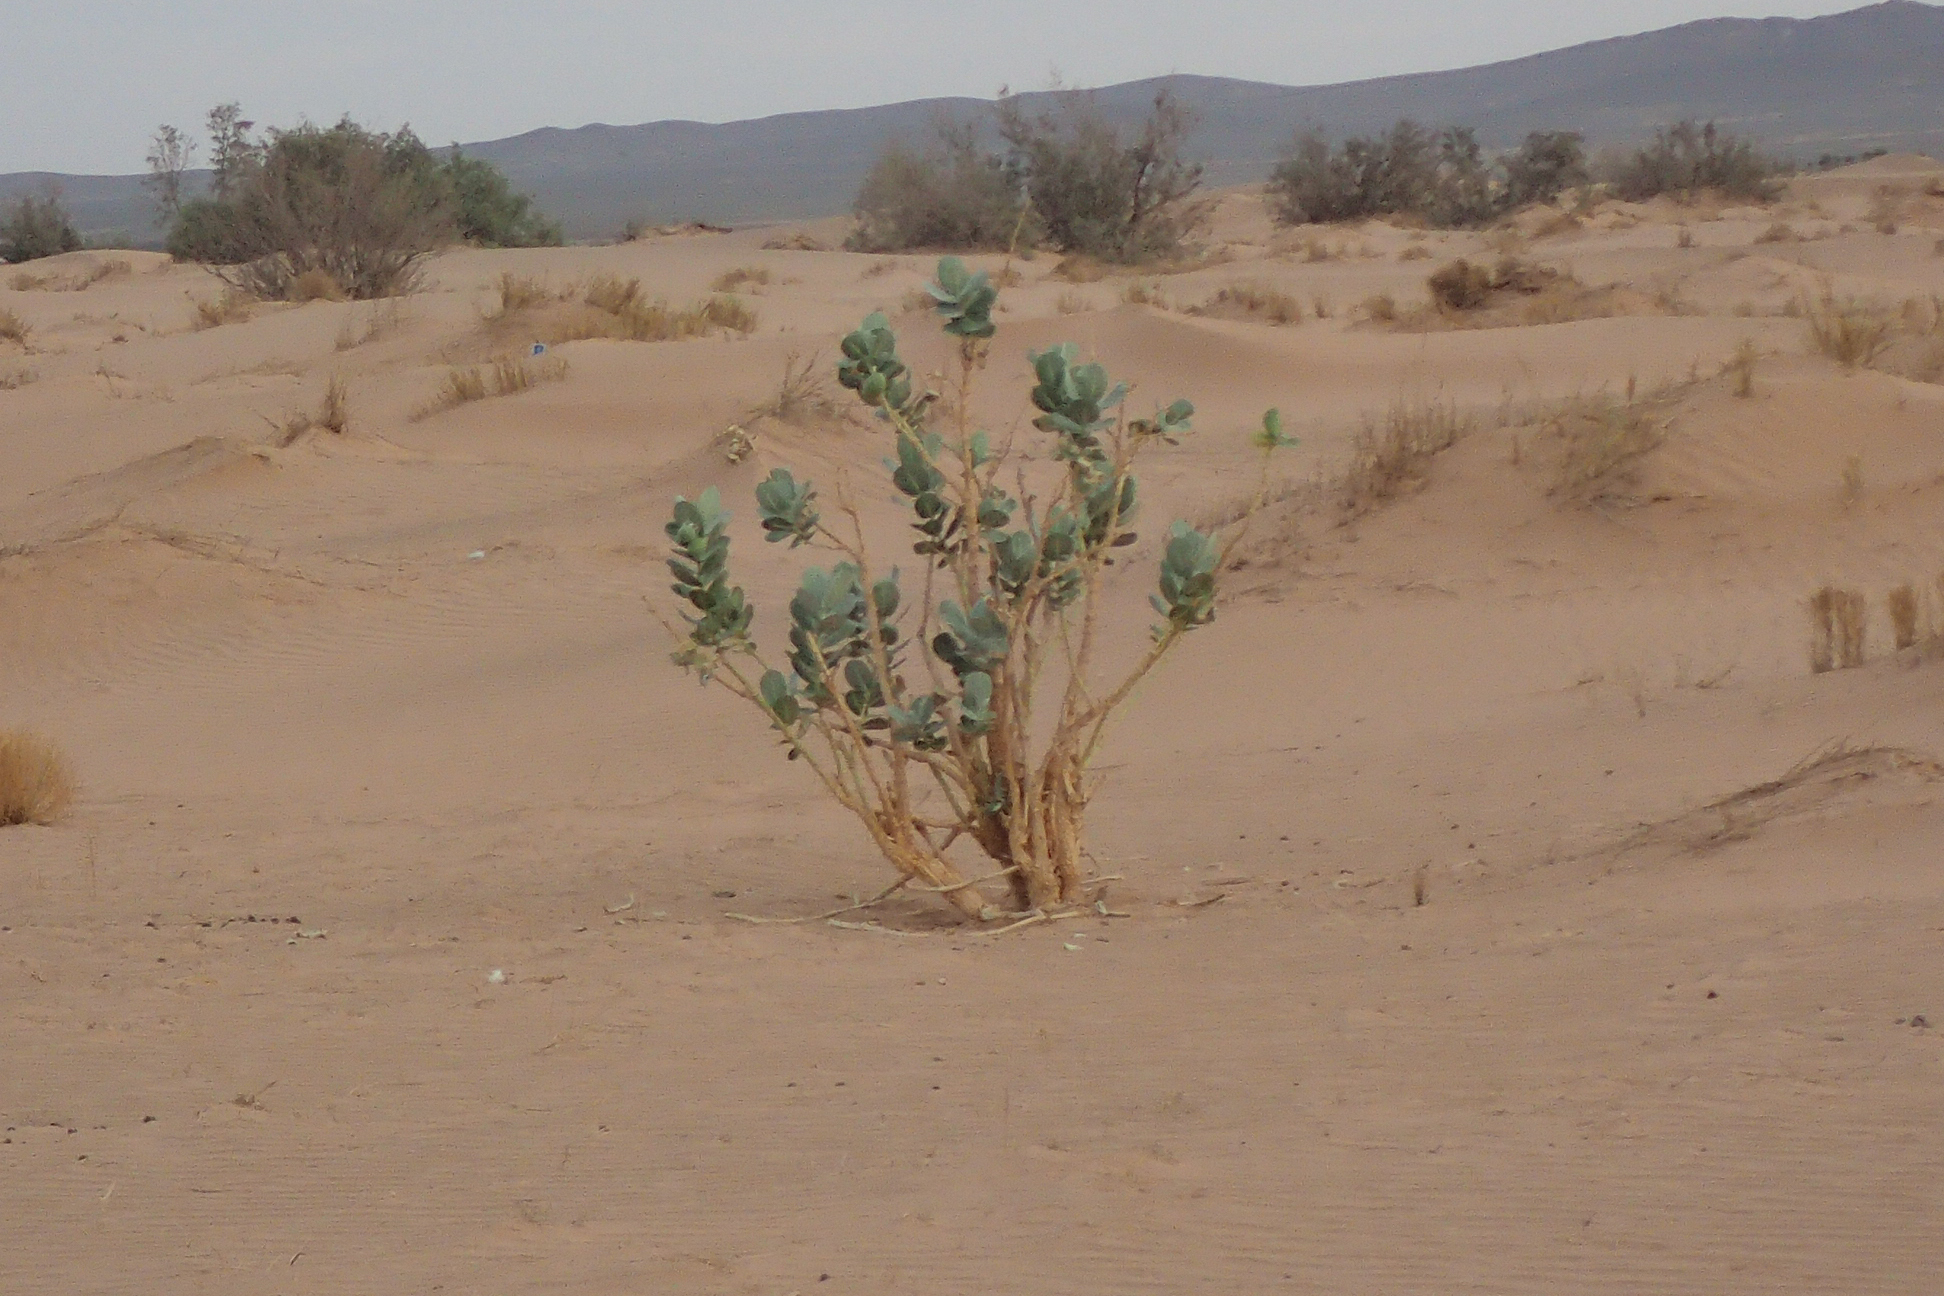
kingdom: Plantae
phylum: Tracheophyta
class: Magnoliopsida
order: Gentianales
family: Apocynaceae
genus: Calotropis
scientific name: Calotropis procera
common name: Roostertree
